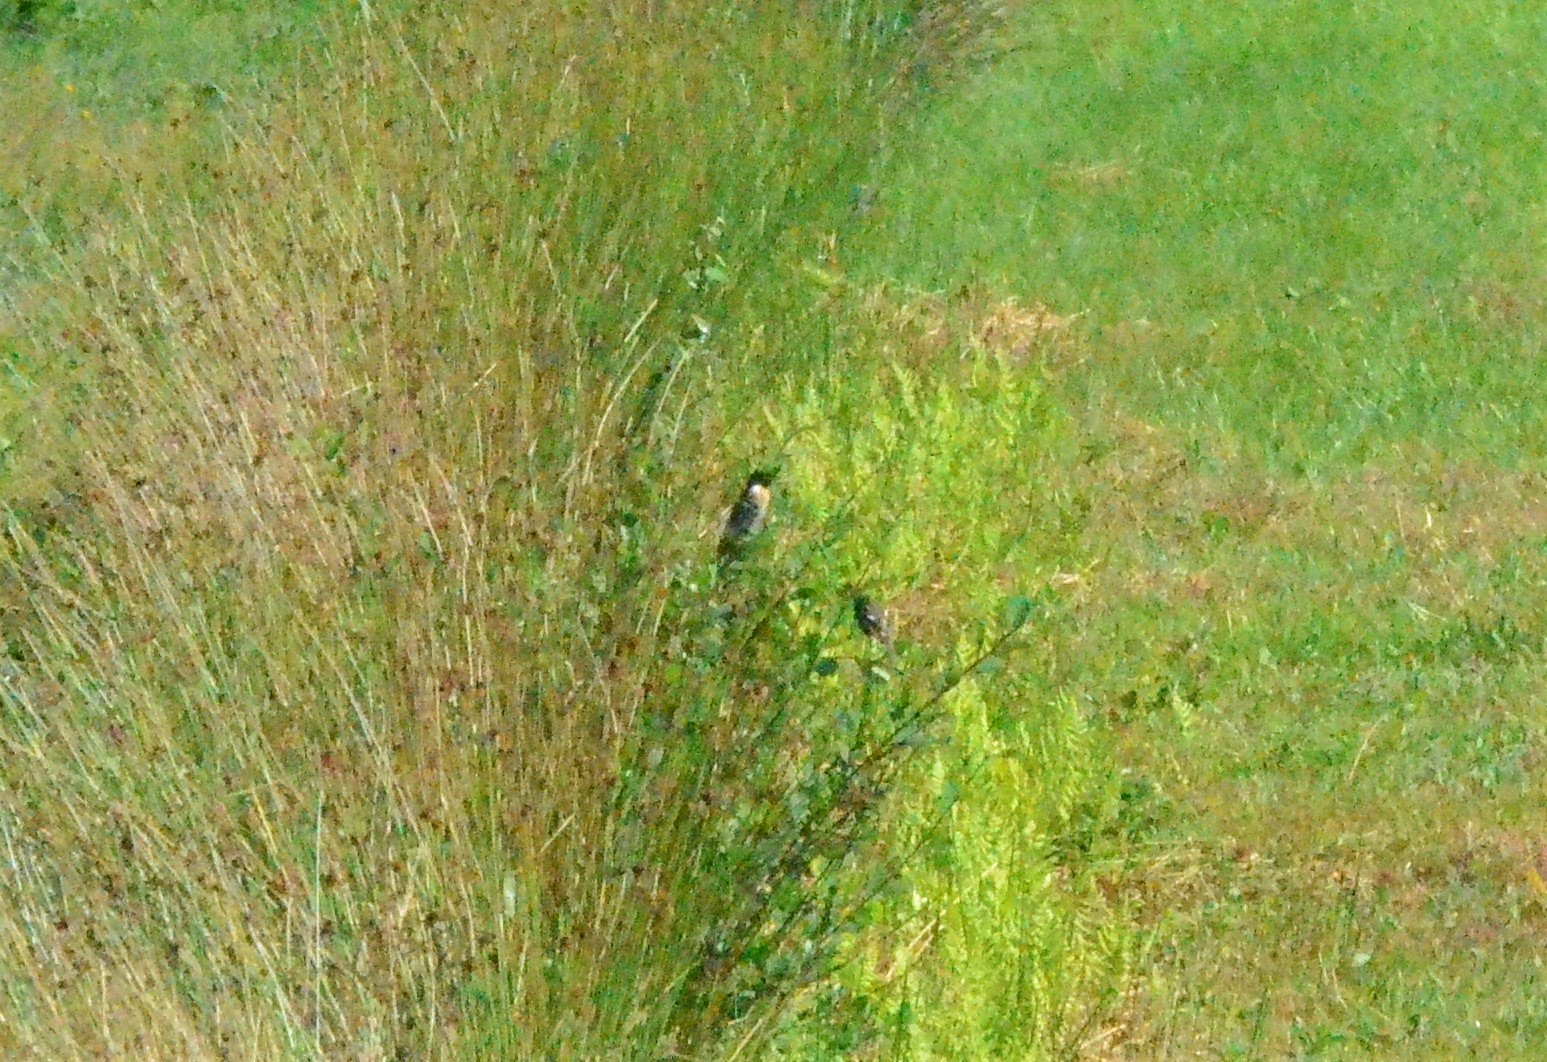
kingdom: Animalia
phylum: Chordata
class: Aves
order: Passeriformes
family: Muscicapidae
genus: Saxicola
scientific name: Saxicola rubicola
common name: European stonechat
